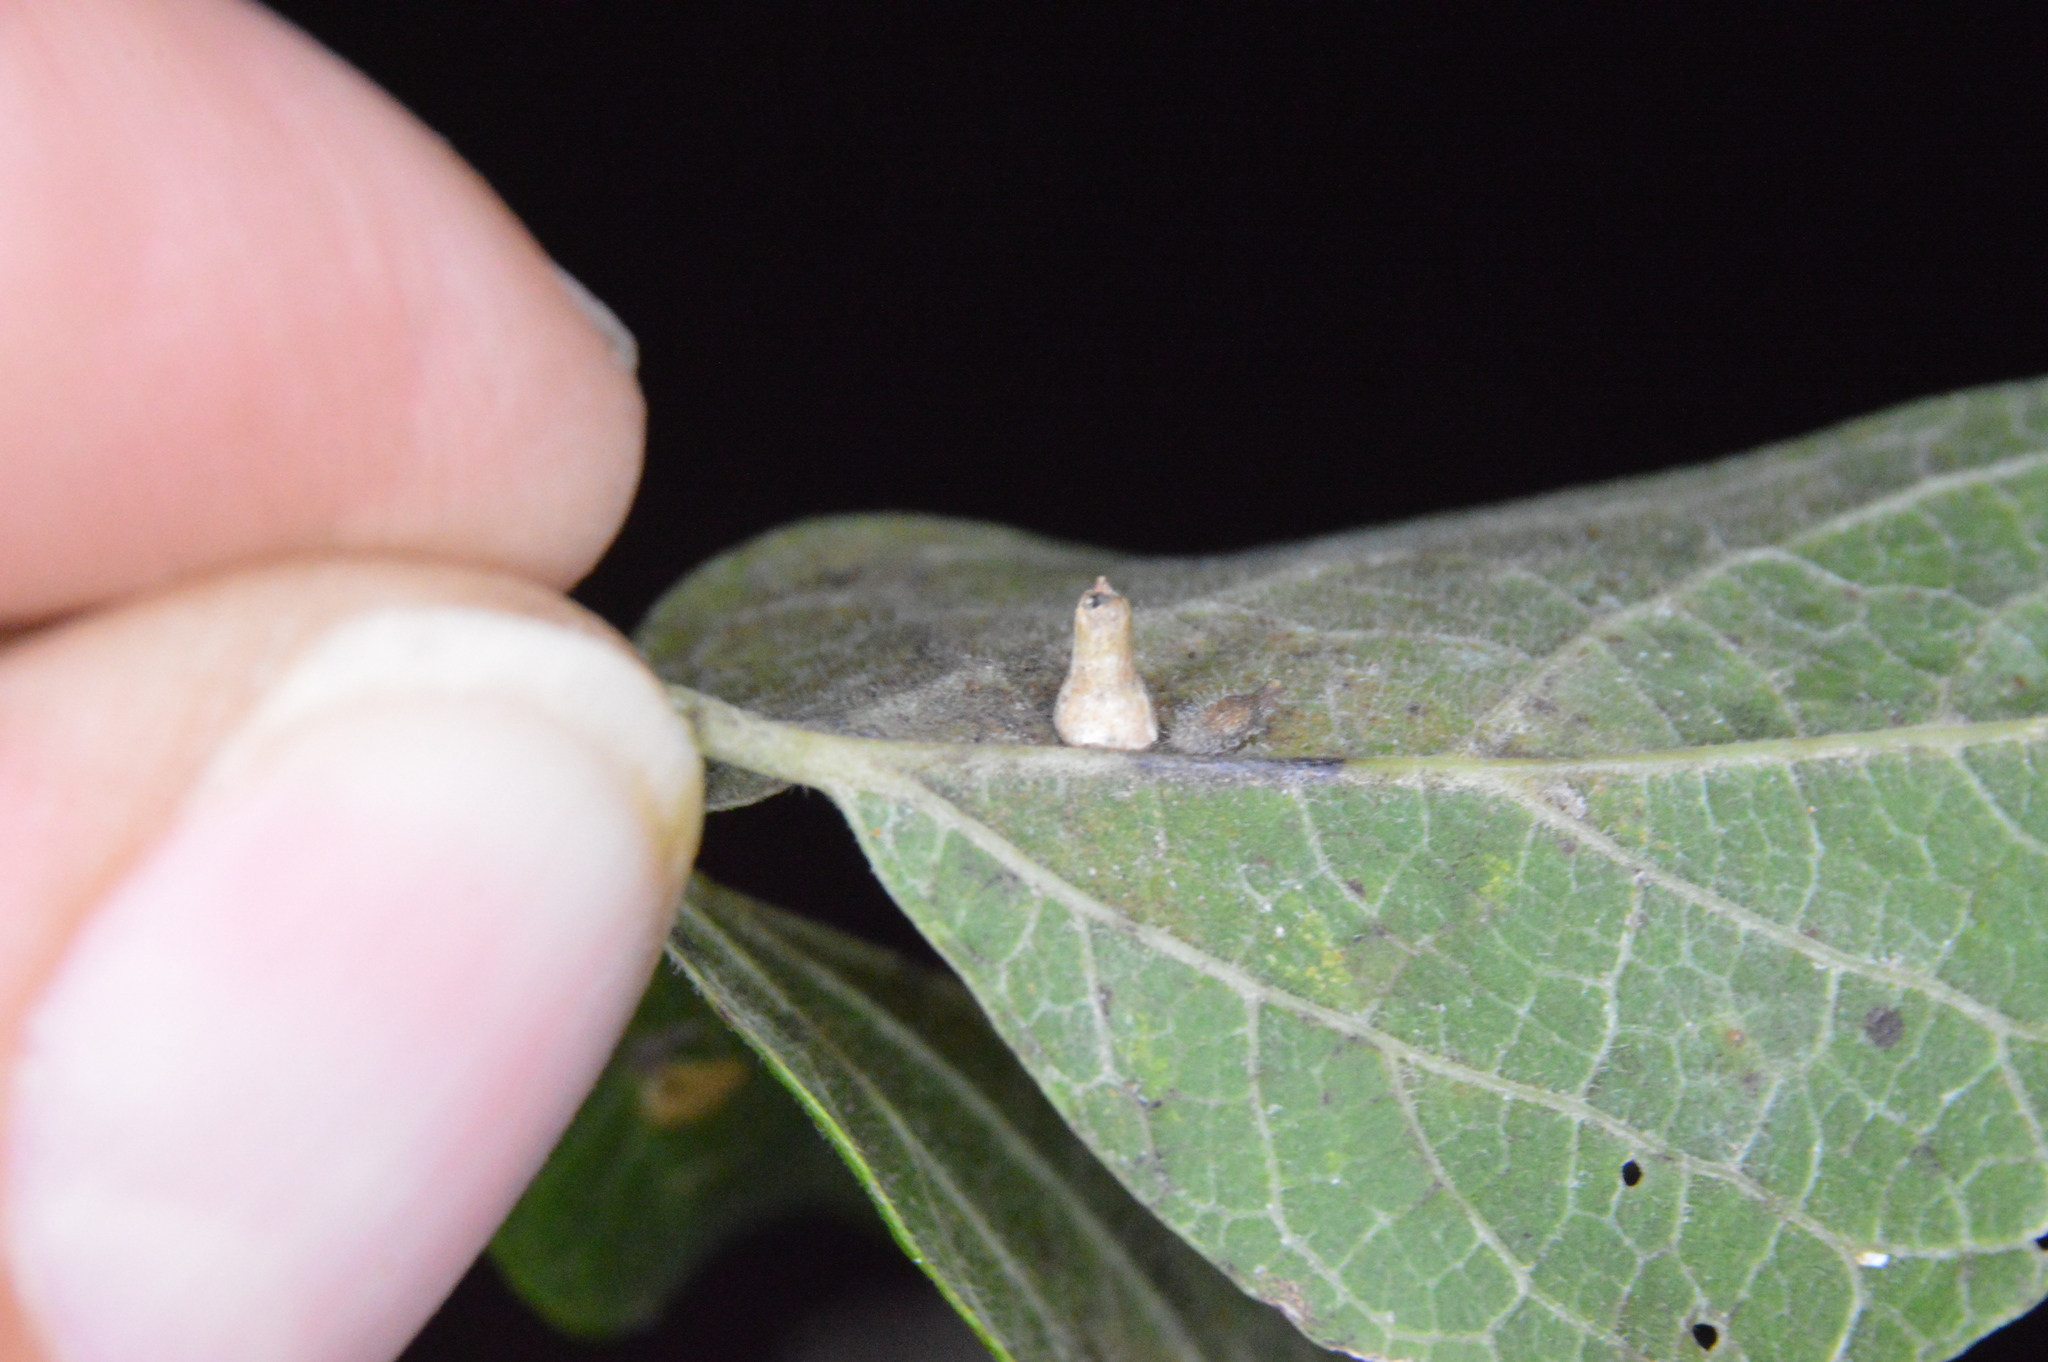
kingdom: Animalia
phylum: Arthropoda
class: Insecta
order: Diptera
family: Cecidomyiidae
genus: Celticecis
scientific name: Celticecis aciculata
